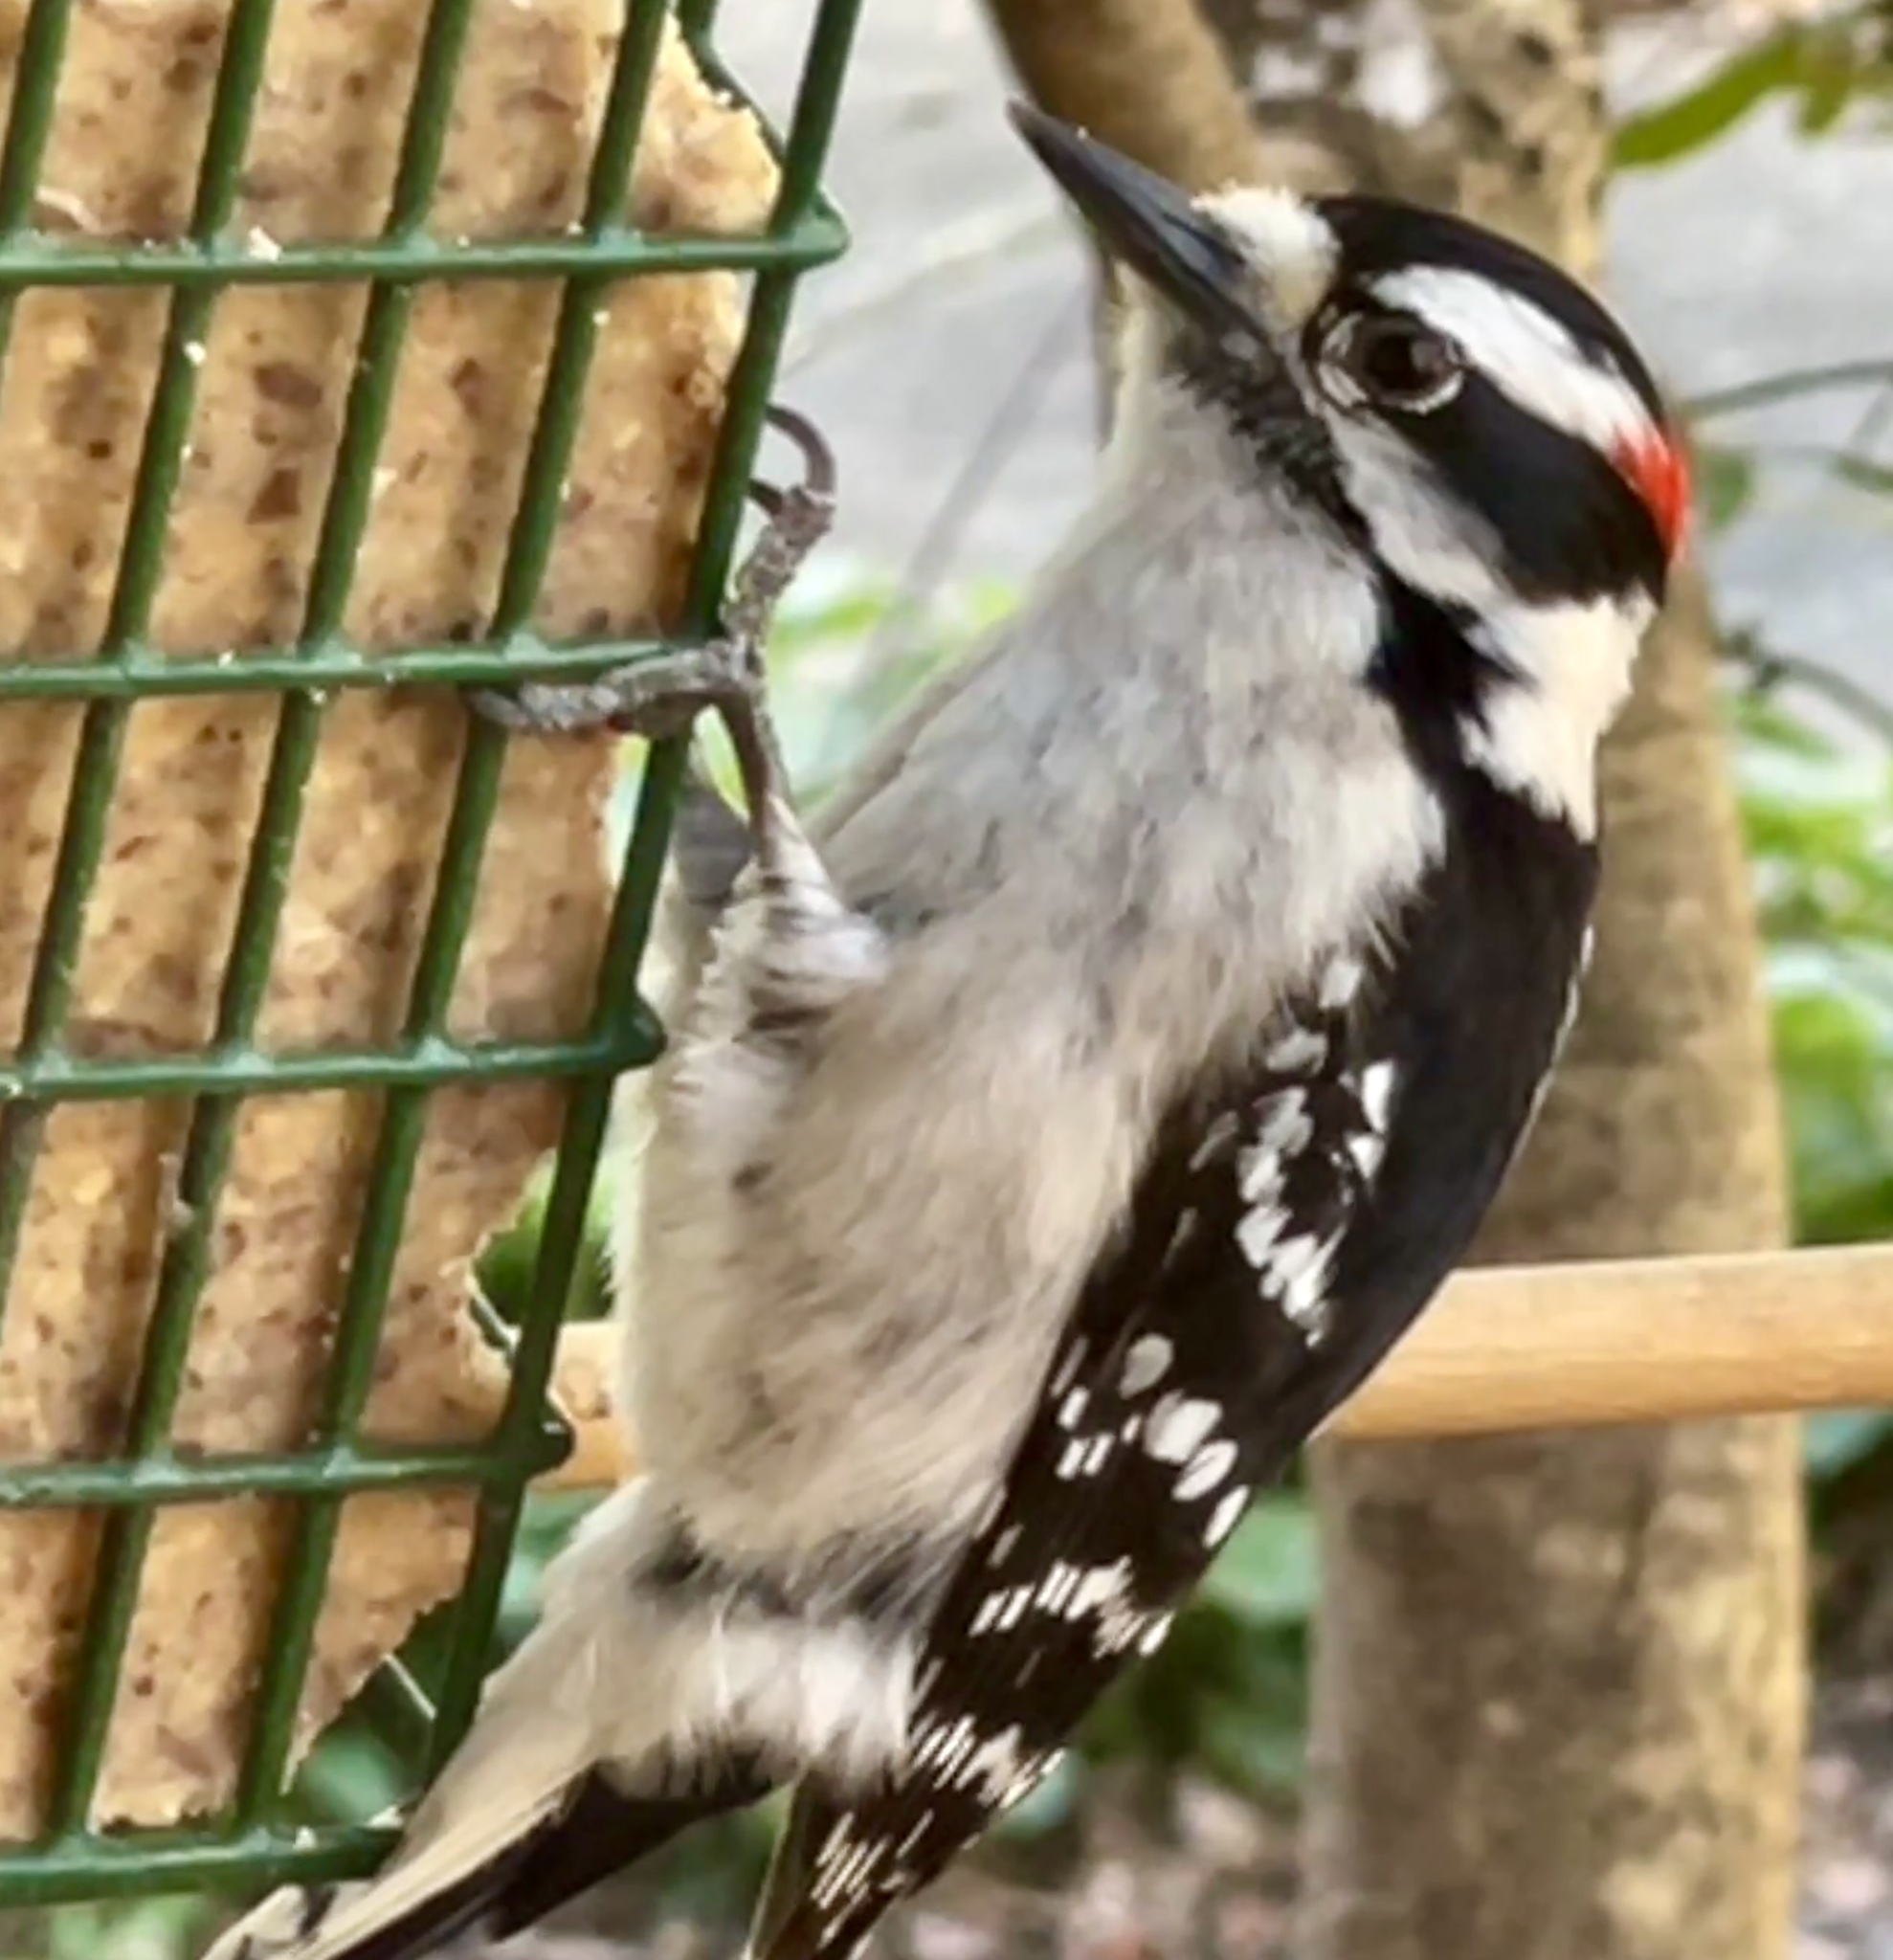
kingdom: Animalia
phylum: Chordata
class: Aves
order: Piciformes
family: Picidae
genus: Dryobates
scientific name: Dryobates pubescens
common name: Downy woodpecker
